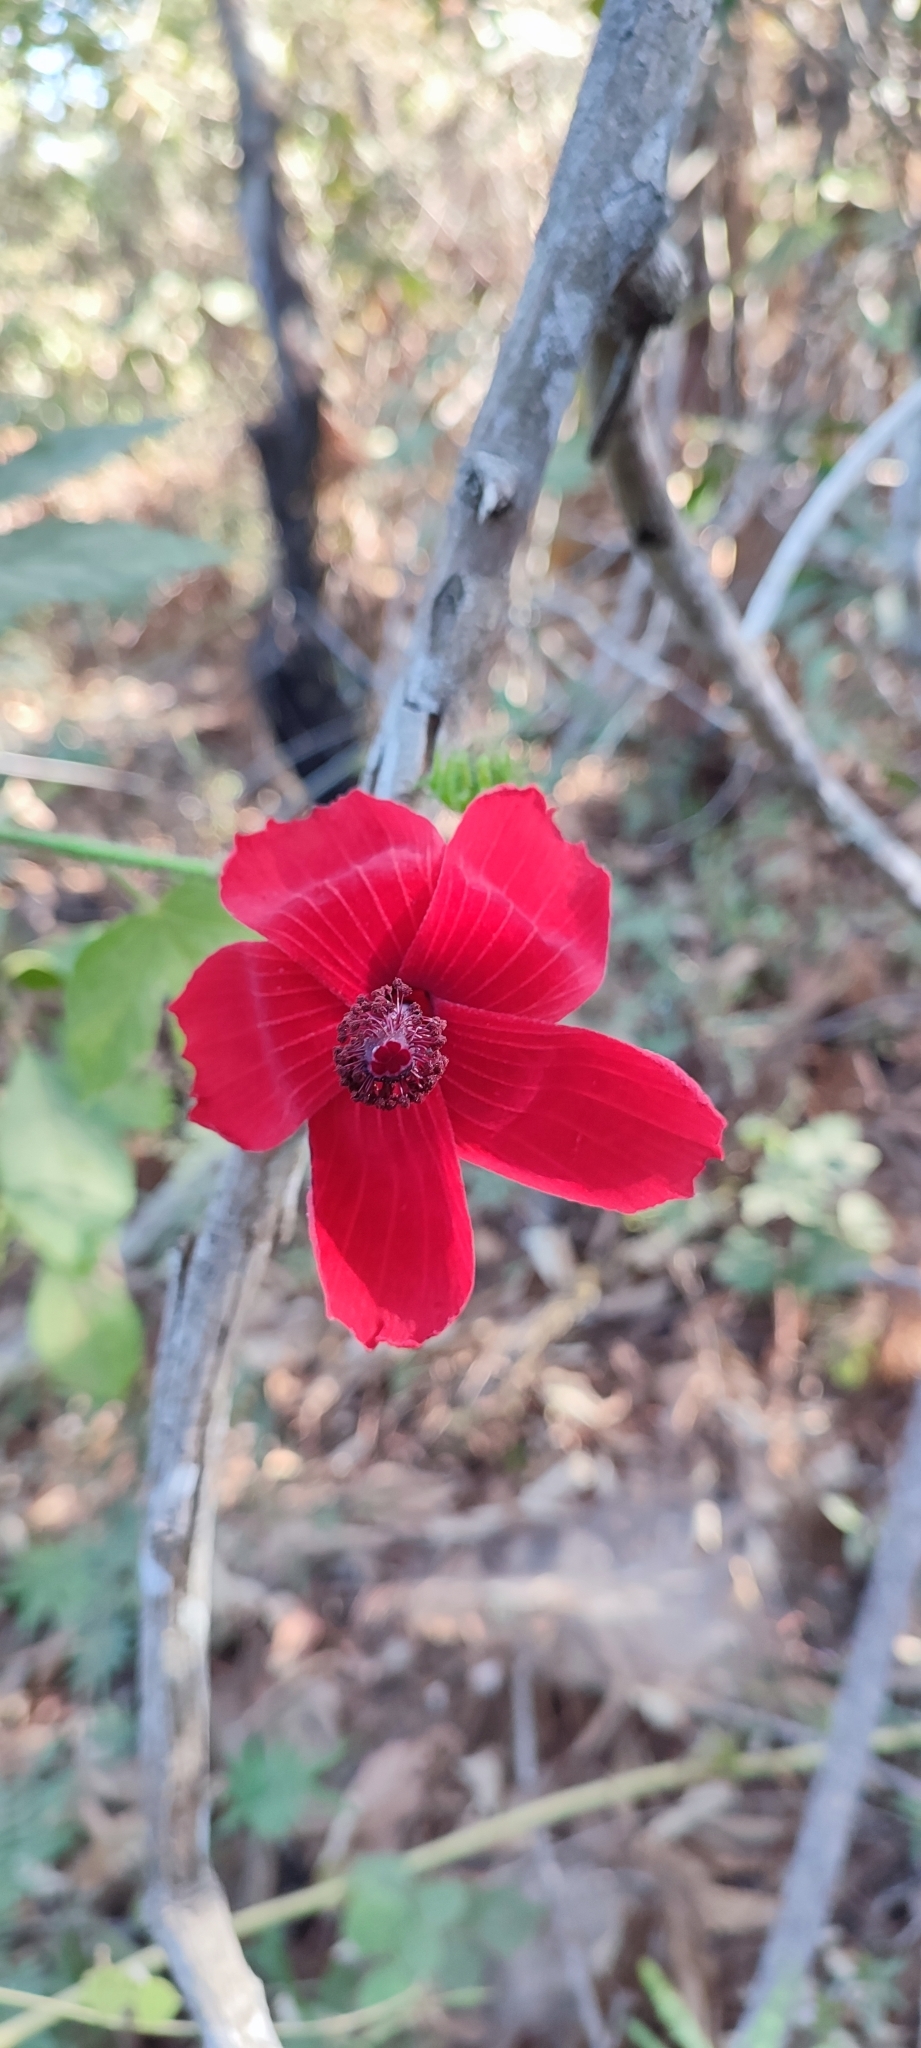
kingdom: Plantae
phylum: Tracheophyta
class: Magnoliopsida
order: Malvales
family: Malvaceae
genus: Hibiscus
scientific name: Hibiscus uncinellus
